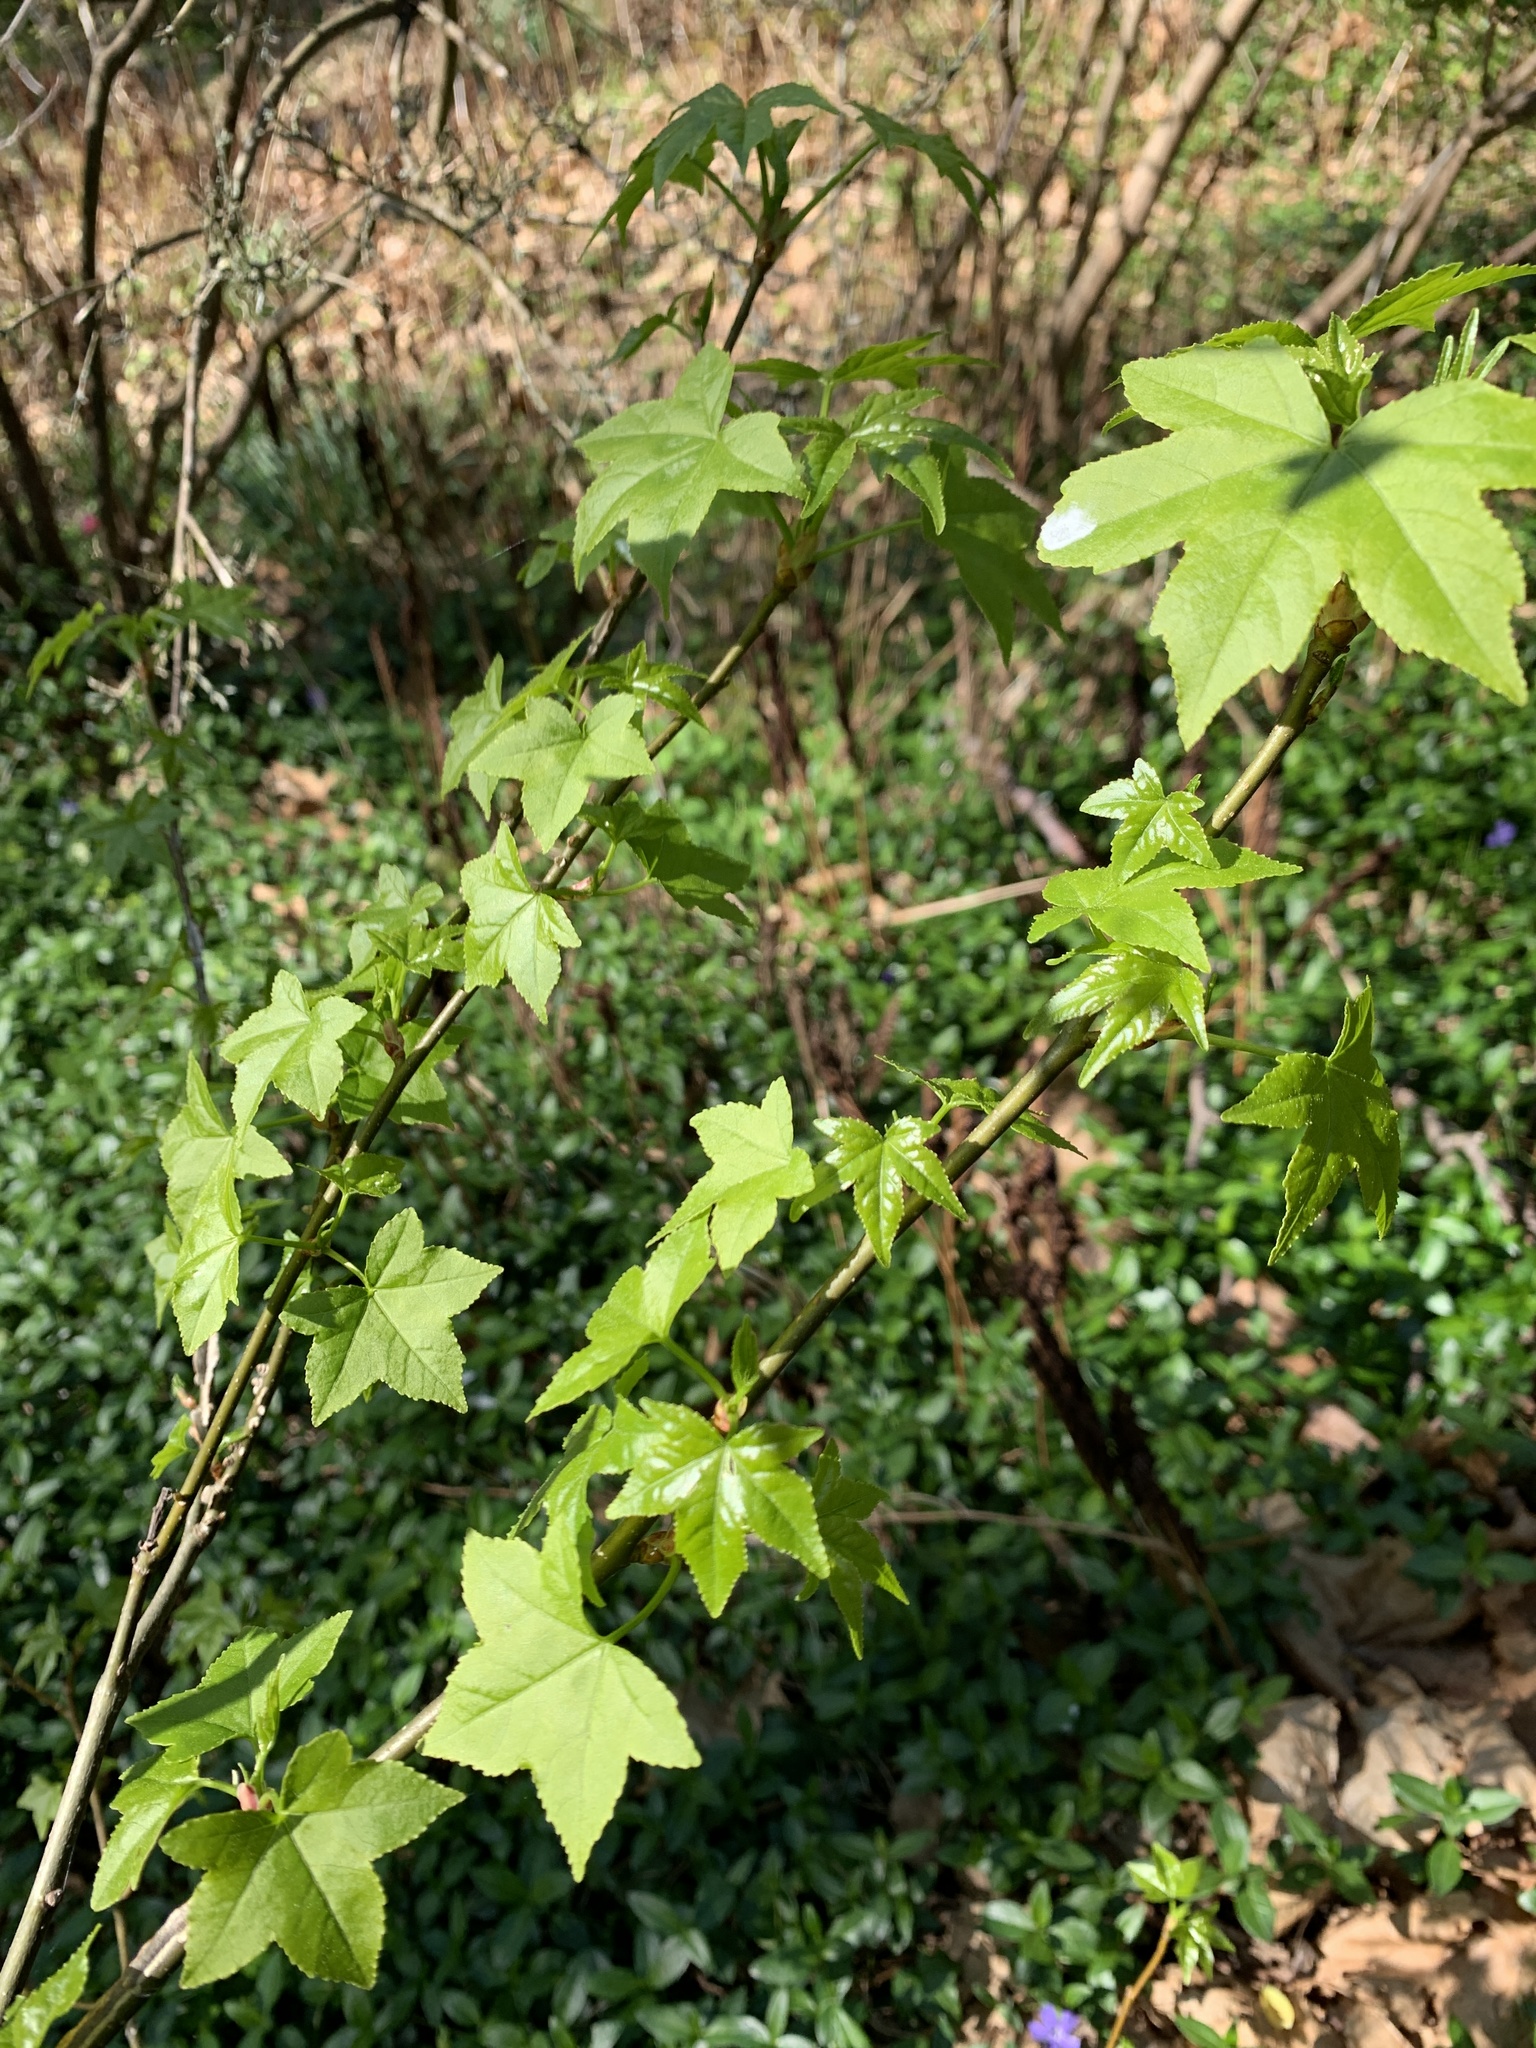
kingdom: Plantae
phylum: Tracheophyta
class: Magnoliopsida
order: Saxifragales
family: Altingiaceae
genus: Liquidambar
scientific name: Liquidambar styraciflua
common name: Sweet gum
